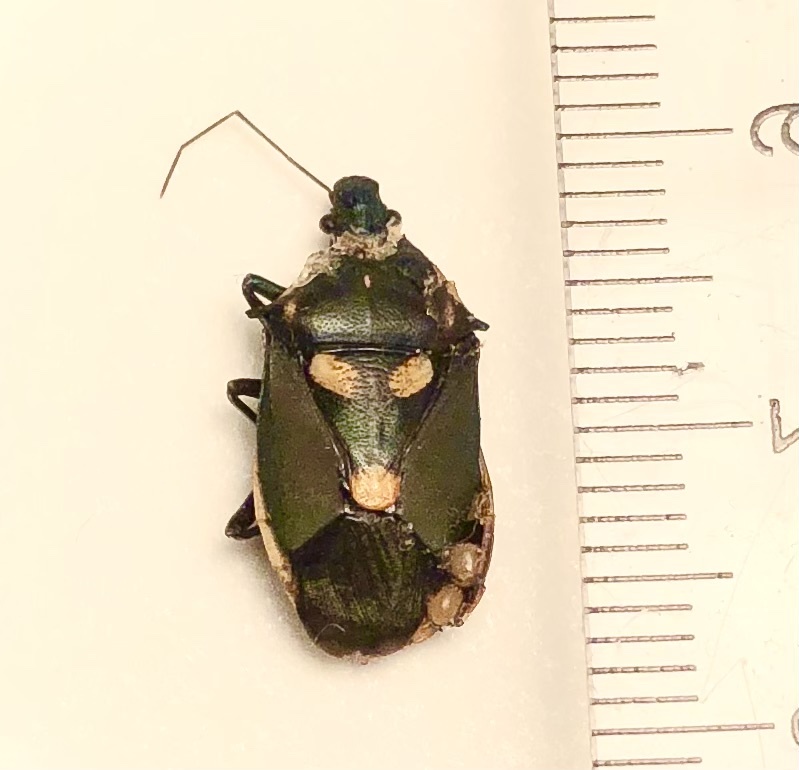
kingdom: Animalia
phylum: Arthropoda
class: Insecta
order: Hemiptera
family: Pentatomidae
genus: Euthyrhynchus
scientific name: Euthyrhynchus floridanus
